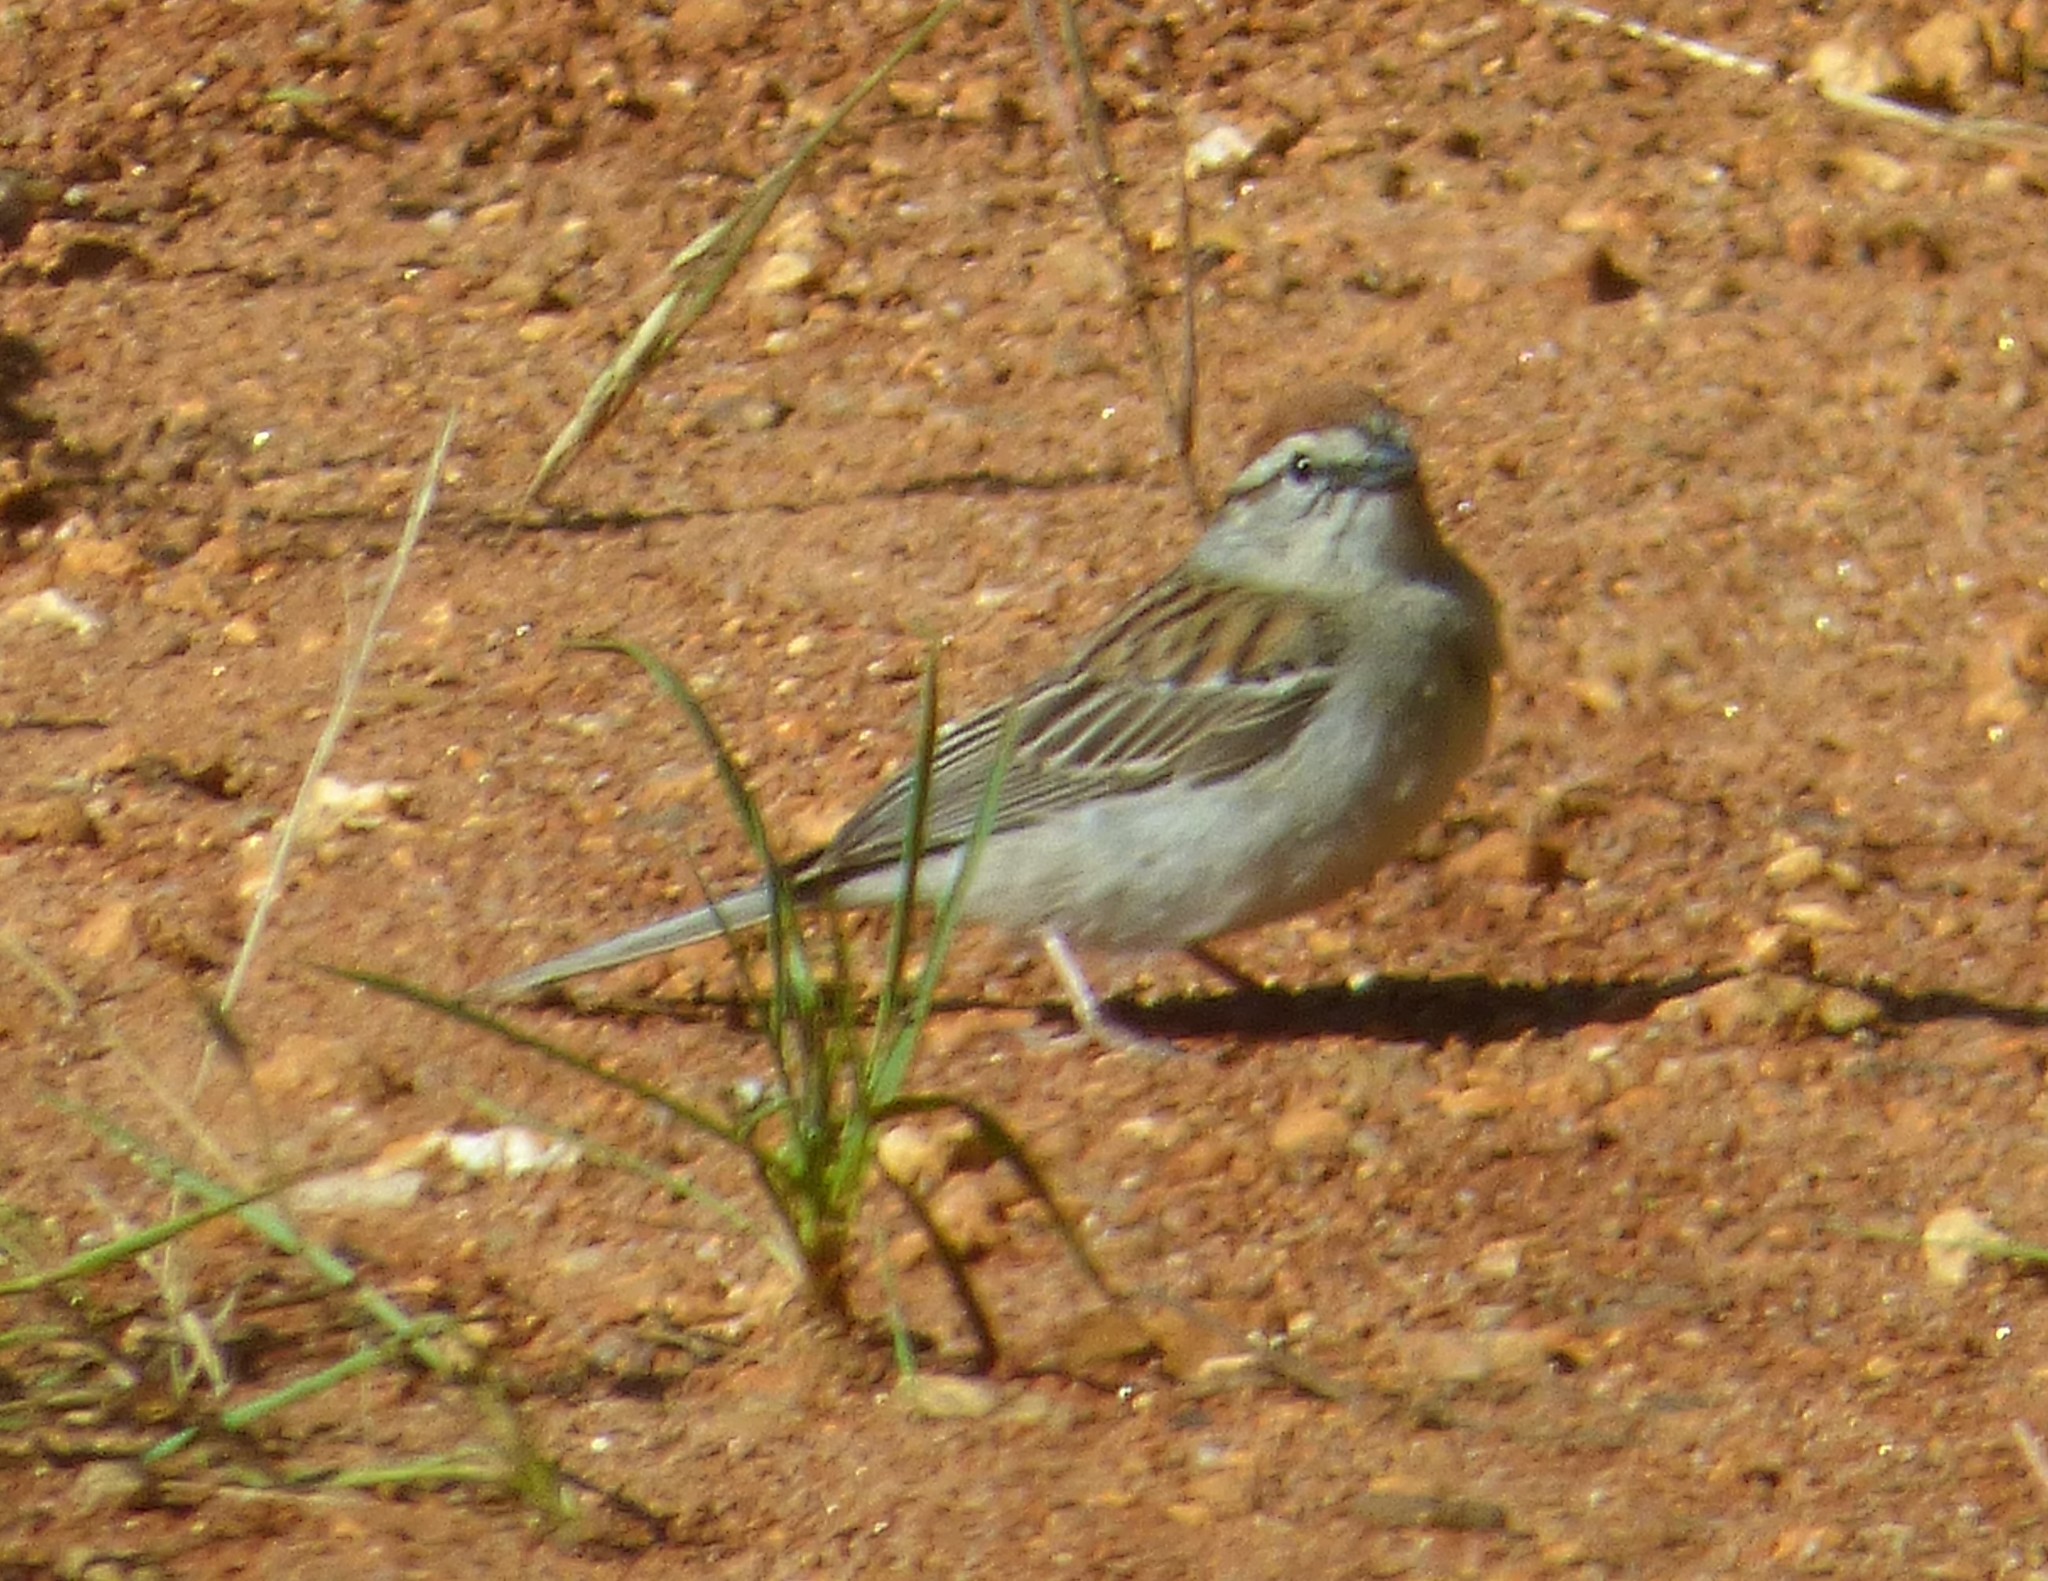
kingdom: Animalia
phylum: Chordata
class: Aves
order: Passeriformes
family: Passerellidae
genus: Spizella
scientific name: Spizella passerina
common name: Chipping sparrow
